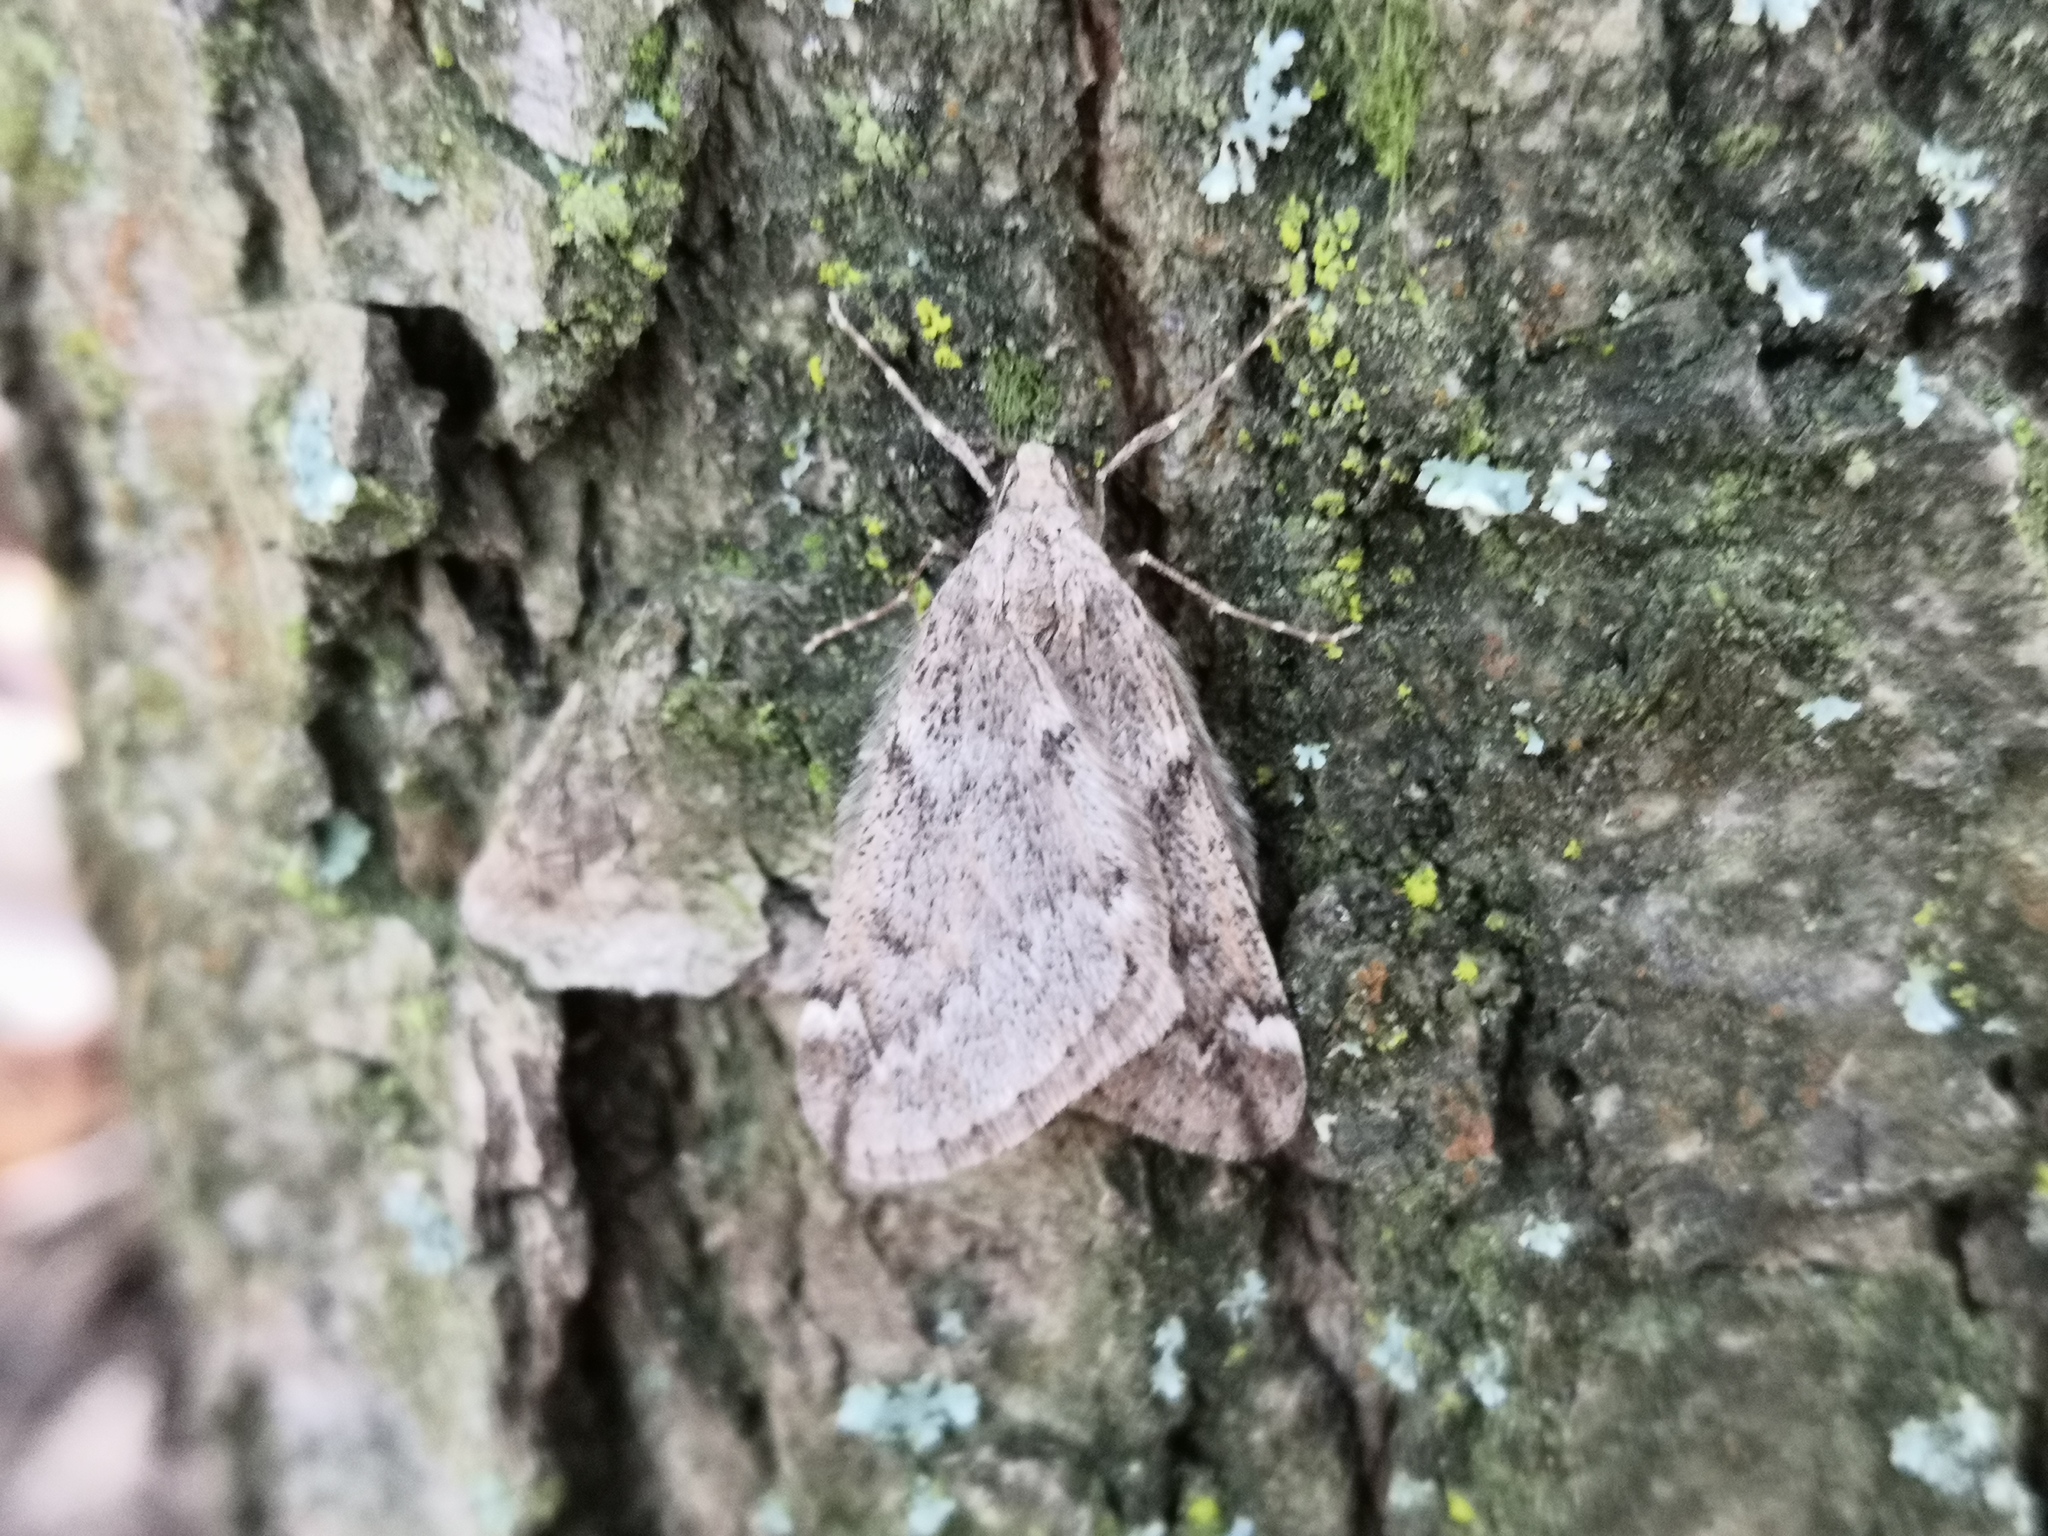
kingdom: Animalia
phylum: Arthropoda
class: Insecta
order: Lepidoptera
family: Geometridae
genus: Alsophila
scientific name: Alsophila aescularia
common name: March moth
